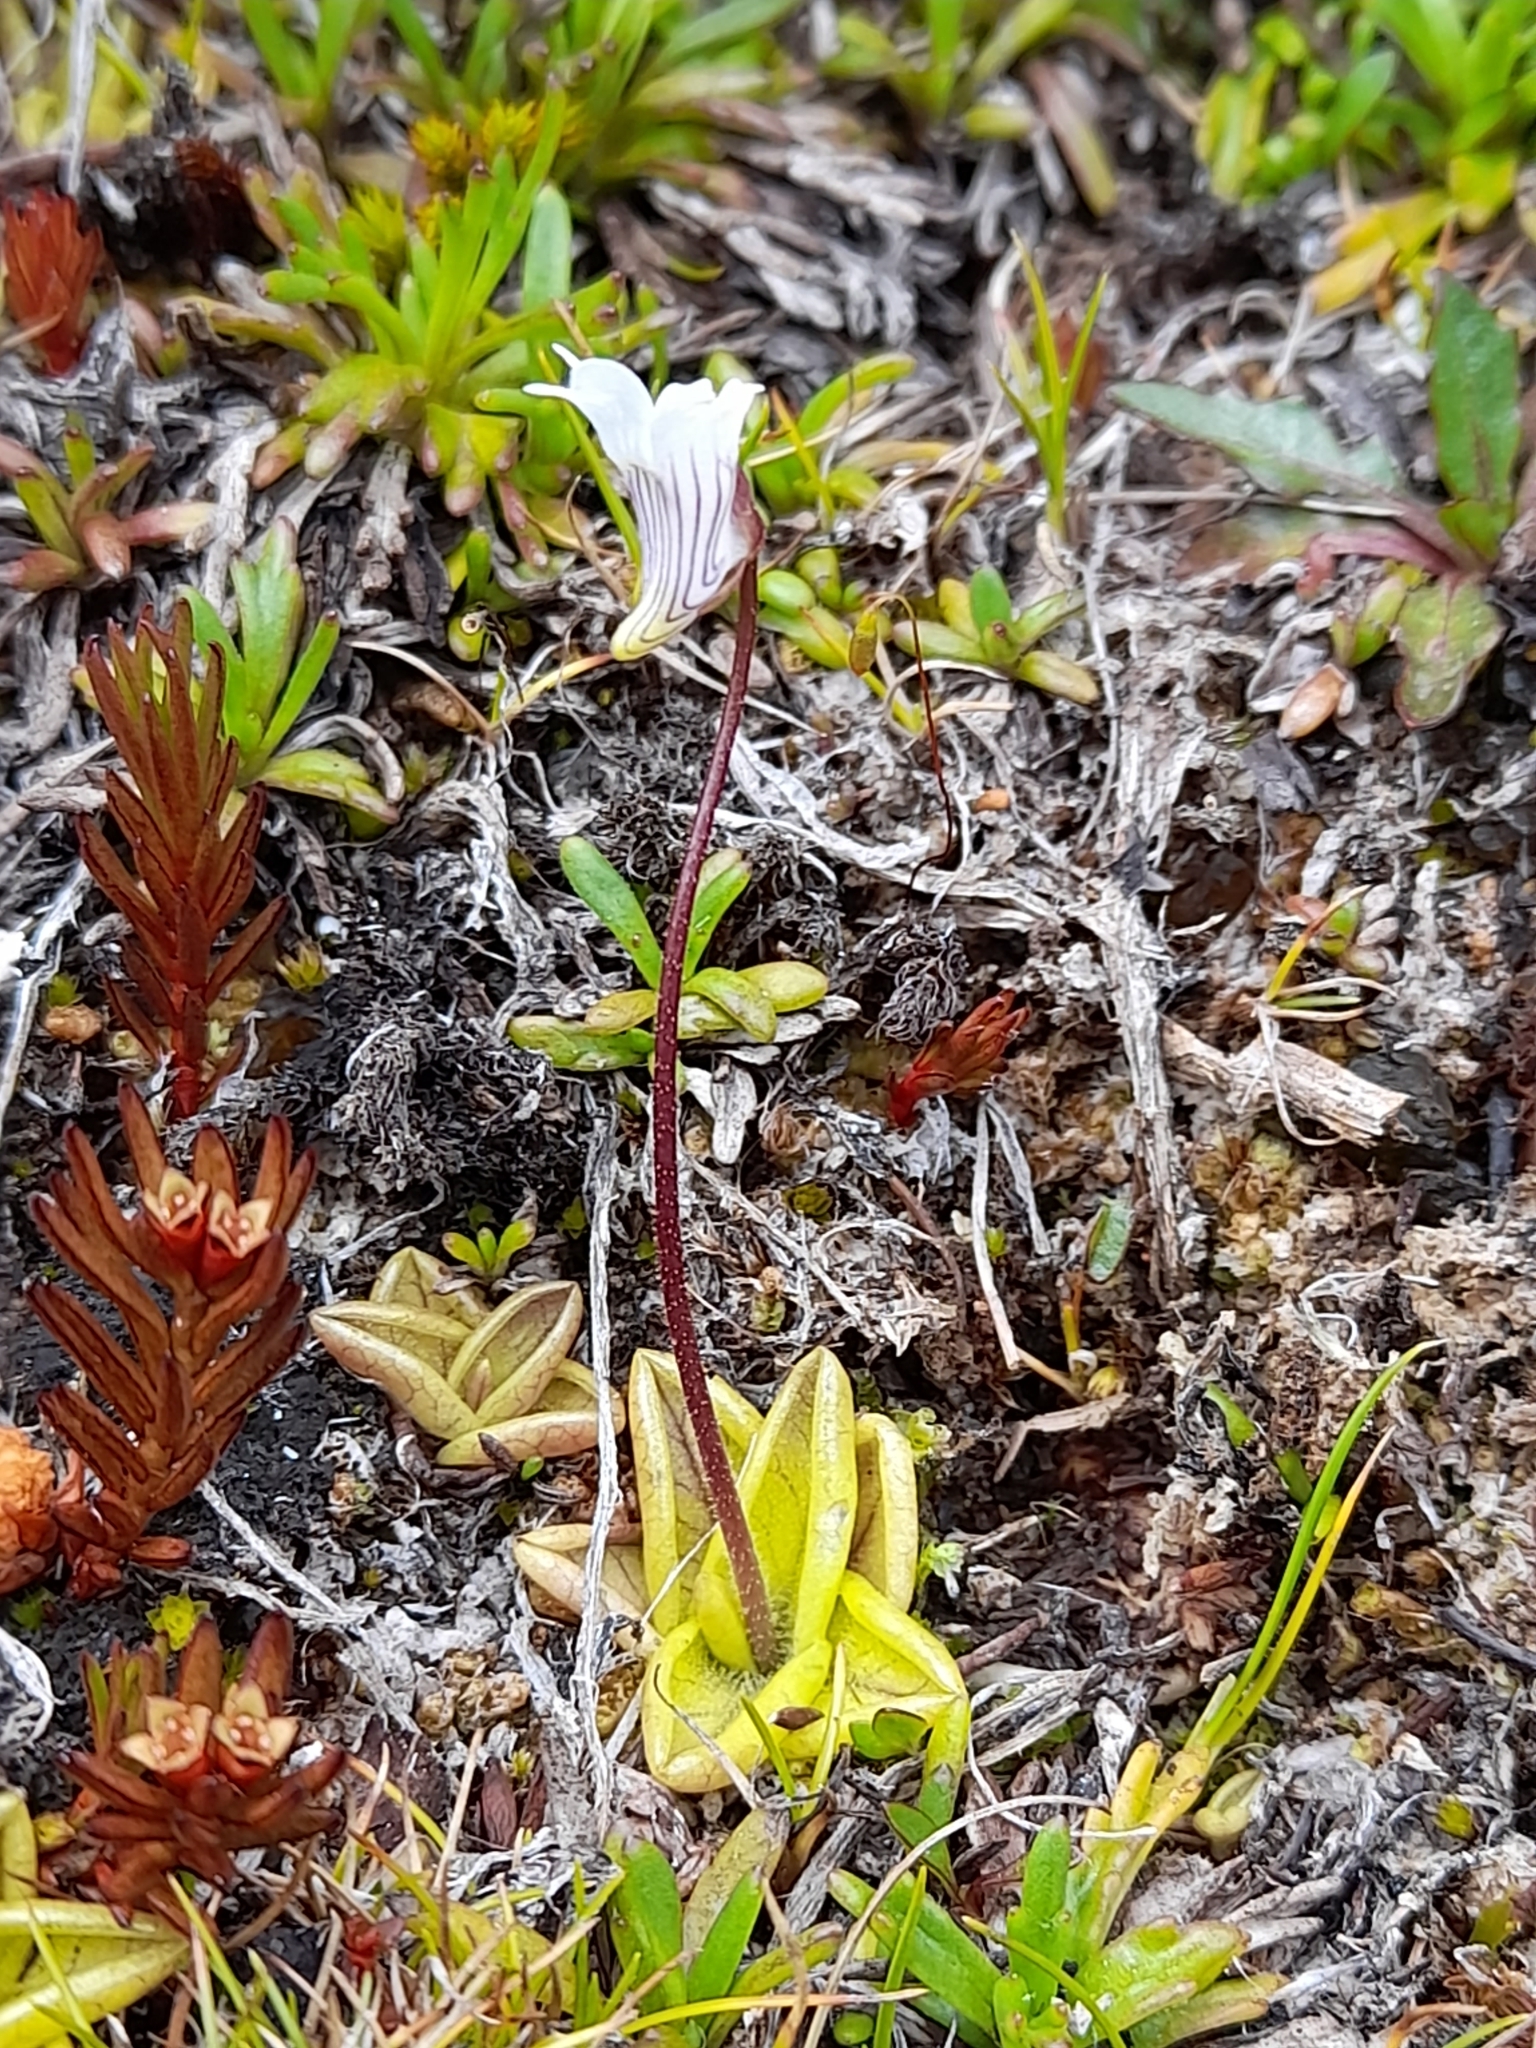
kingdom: Plantae
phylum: Tracheophyta
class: Magnoliopsida
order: Lamiales
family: Lentibulariaceae
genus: Pinguicula
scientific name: Pinguicula antarctica
